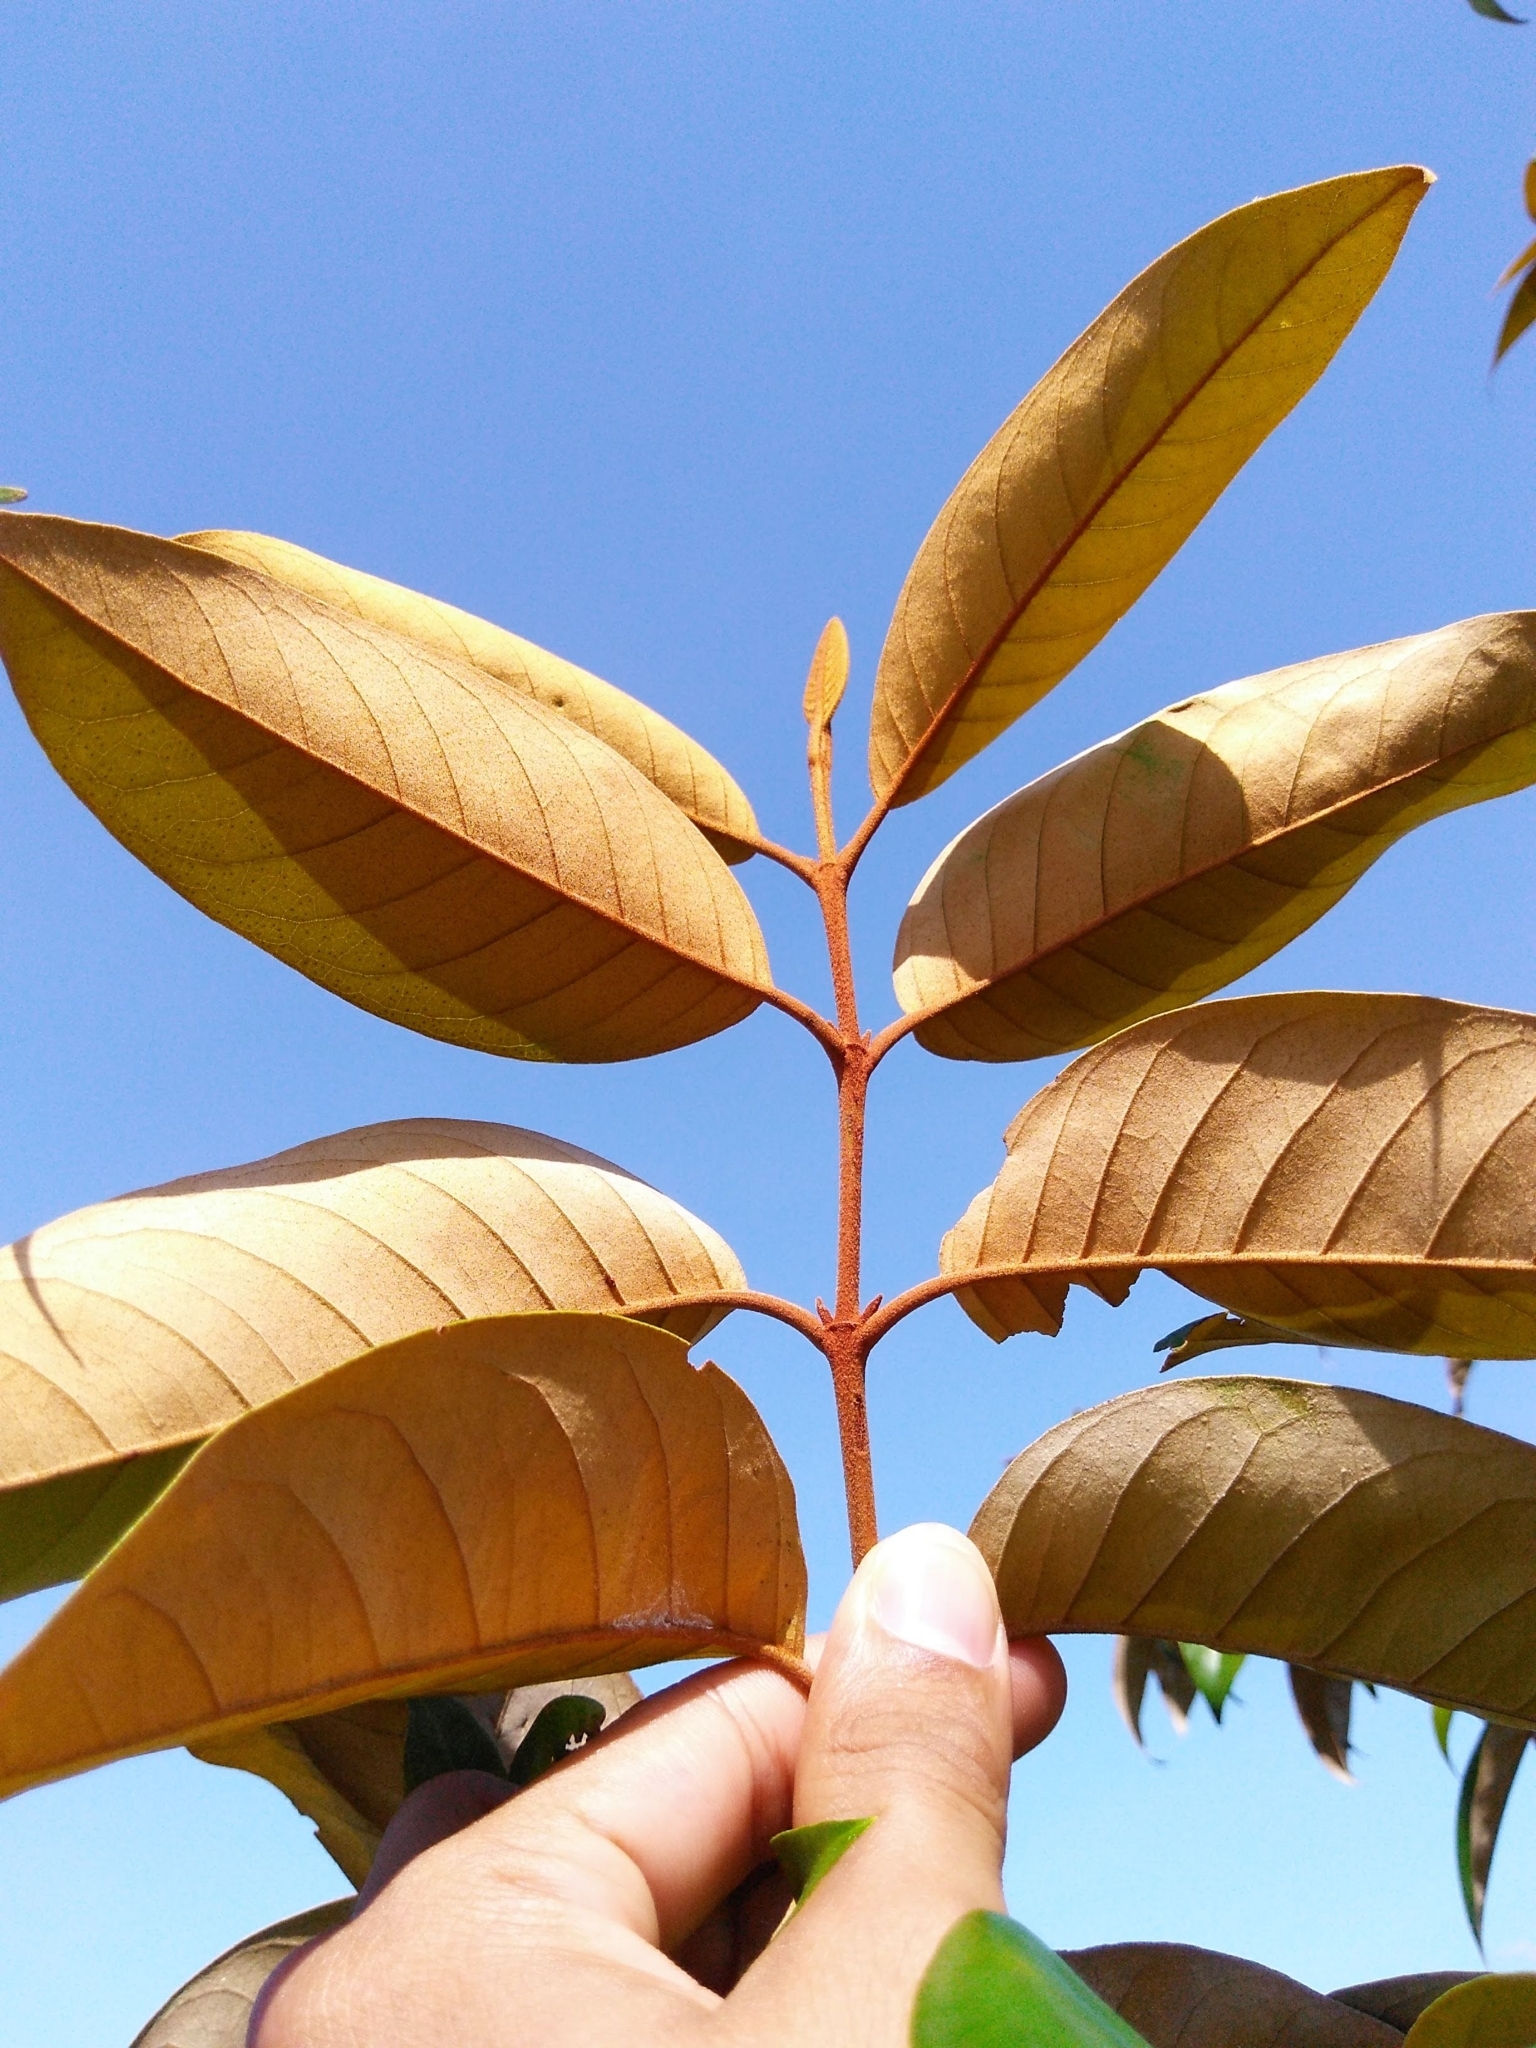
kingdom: Plantae
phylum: Tracheophyta
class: Magnoliopsida
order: Malpighiales
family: Hypericaceae
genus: Vismia
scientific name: Vismia guianensis
